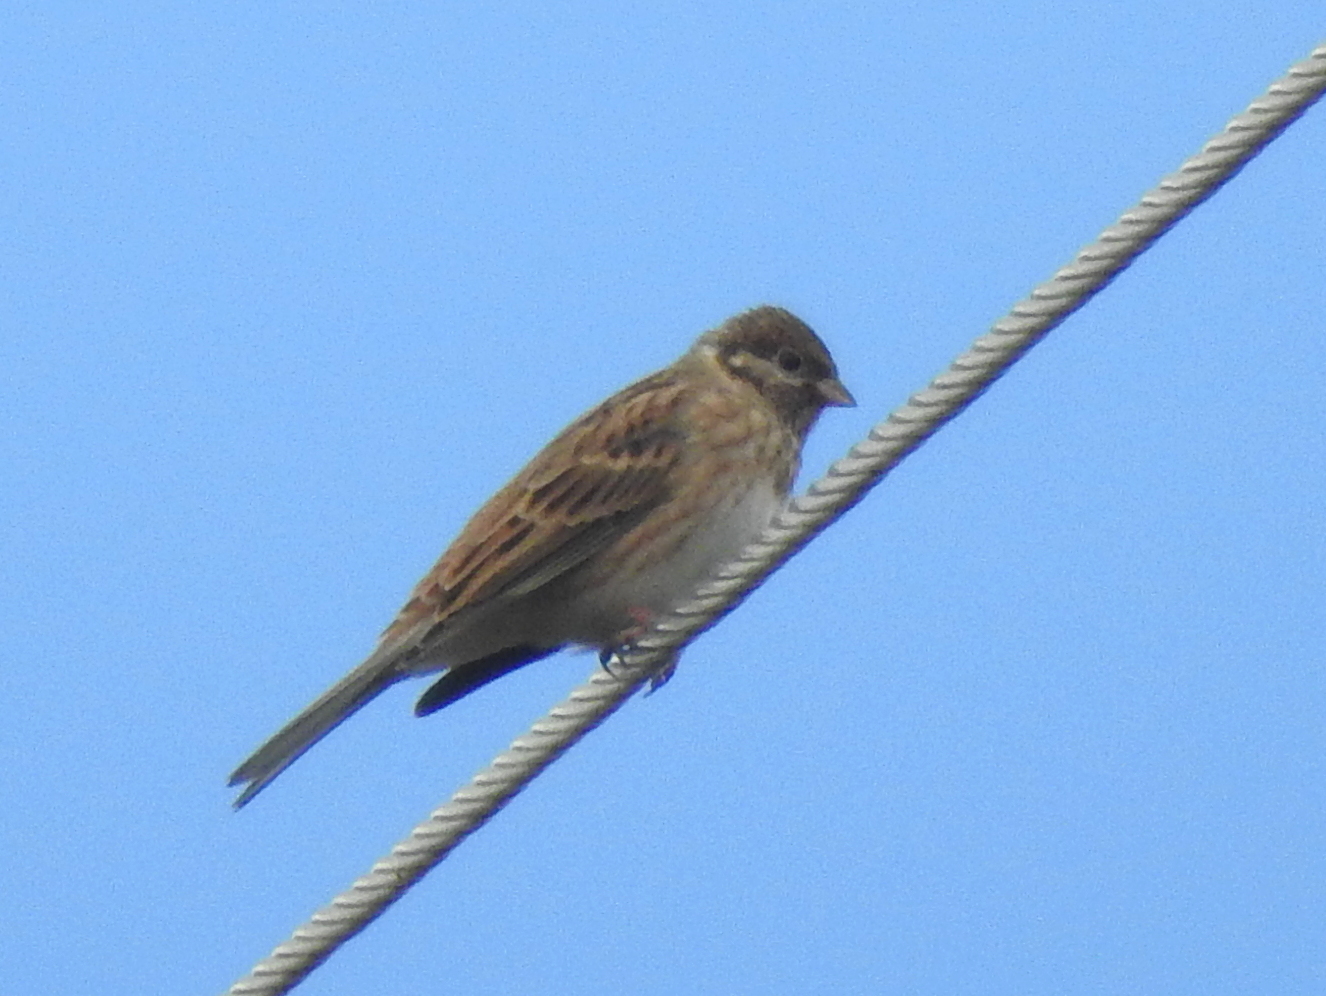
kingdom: Animalia
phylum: Chordata
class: Aves
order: Passeriformes
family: Emberizidae
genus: Emberiza
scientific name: Emberiza leucocephalos
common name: Pine bunting
